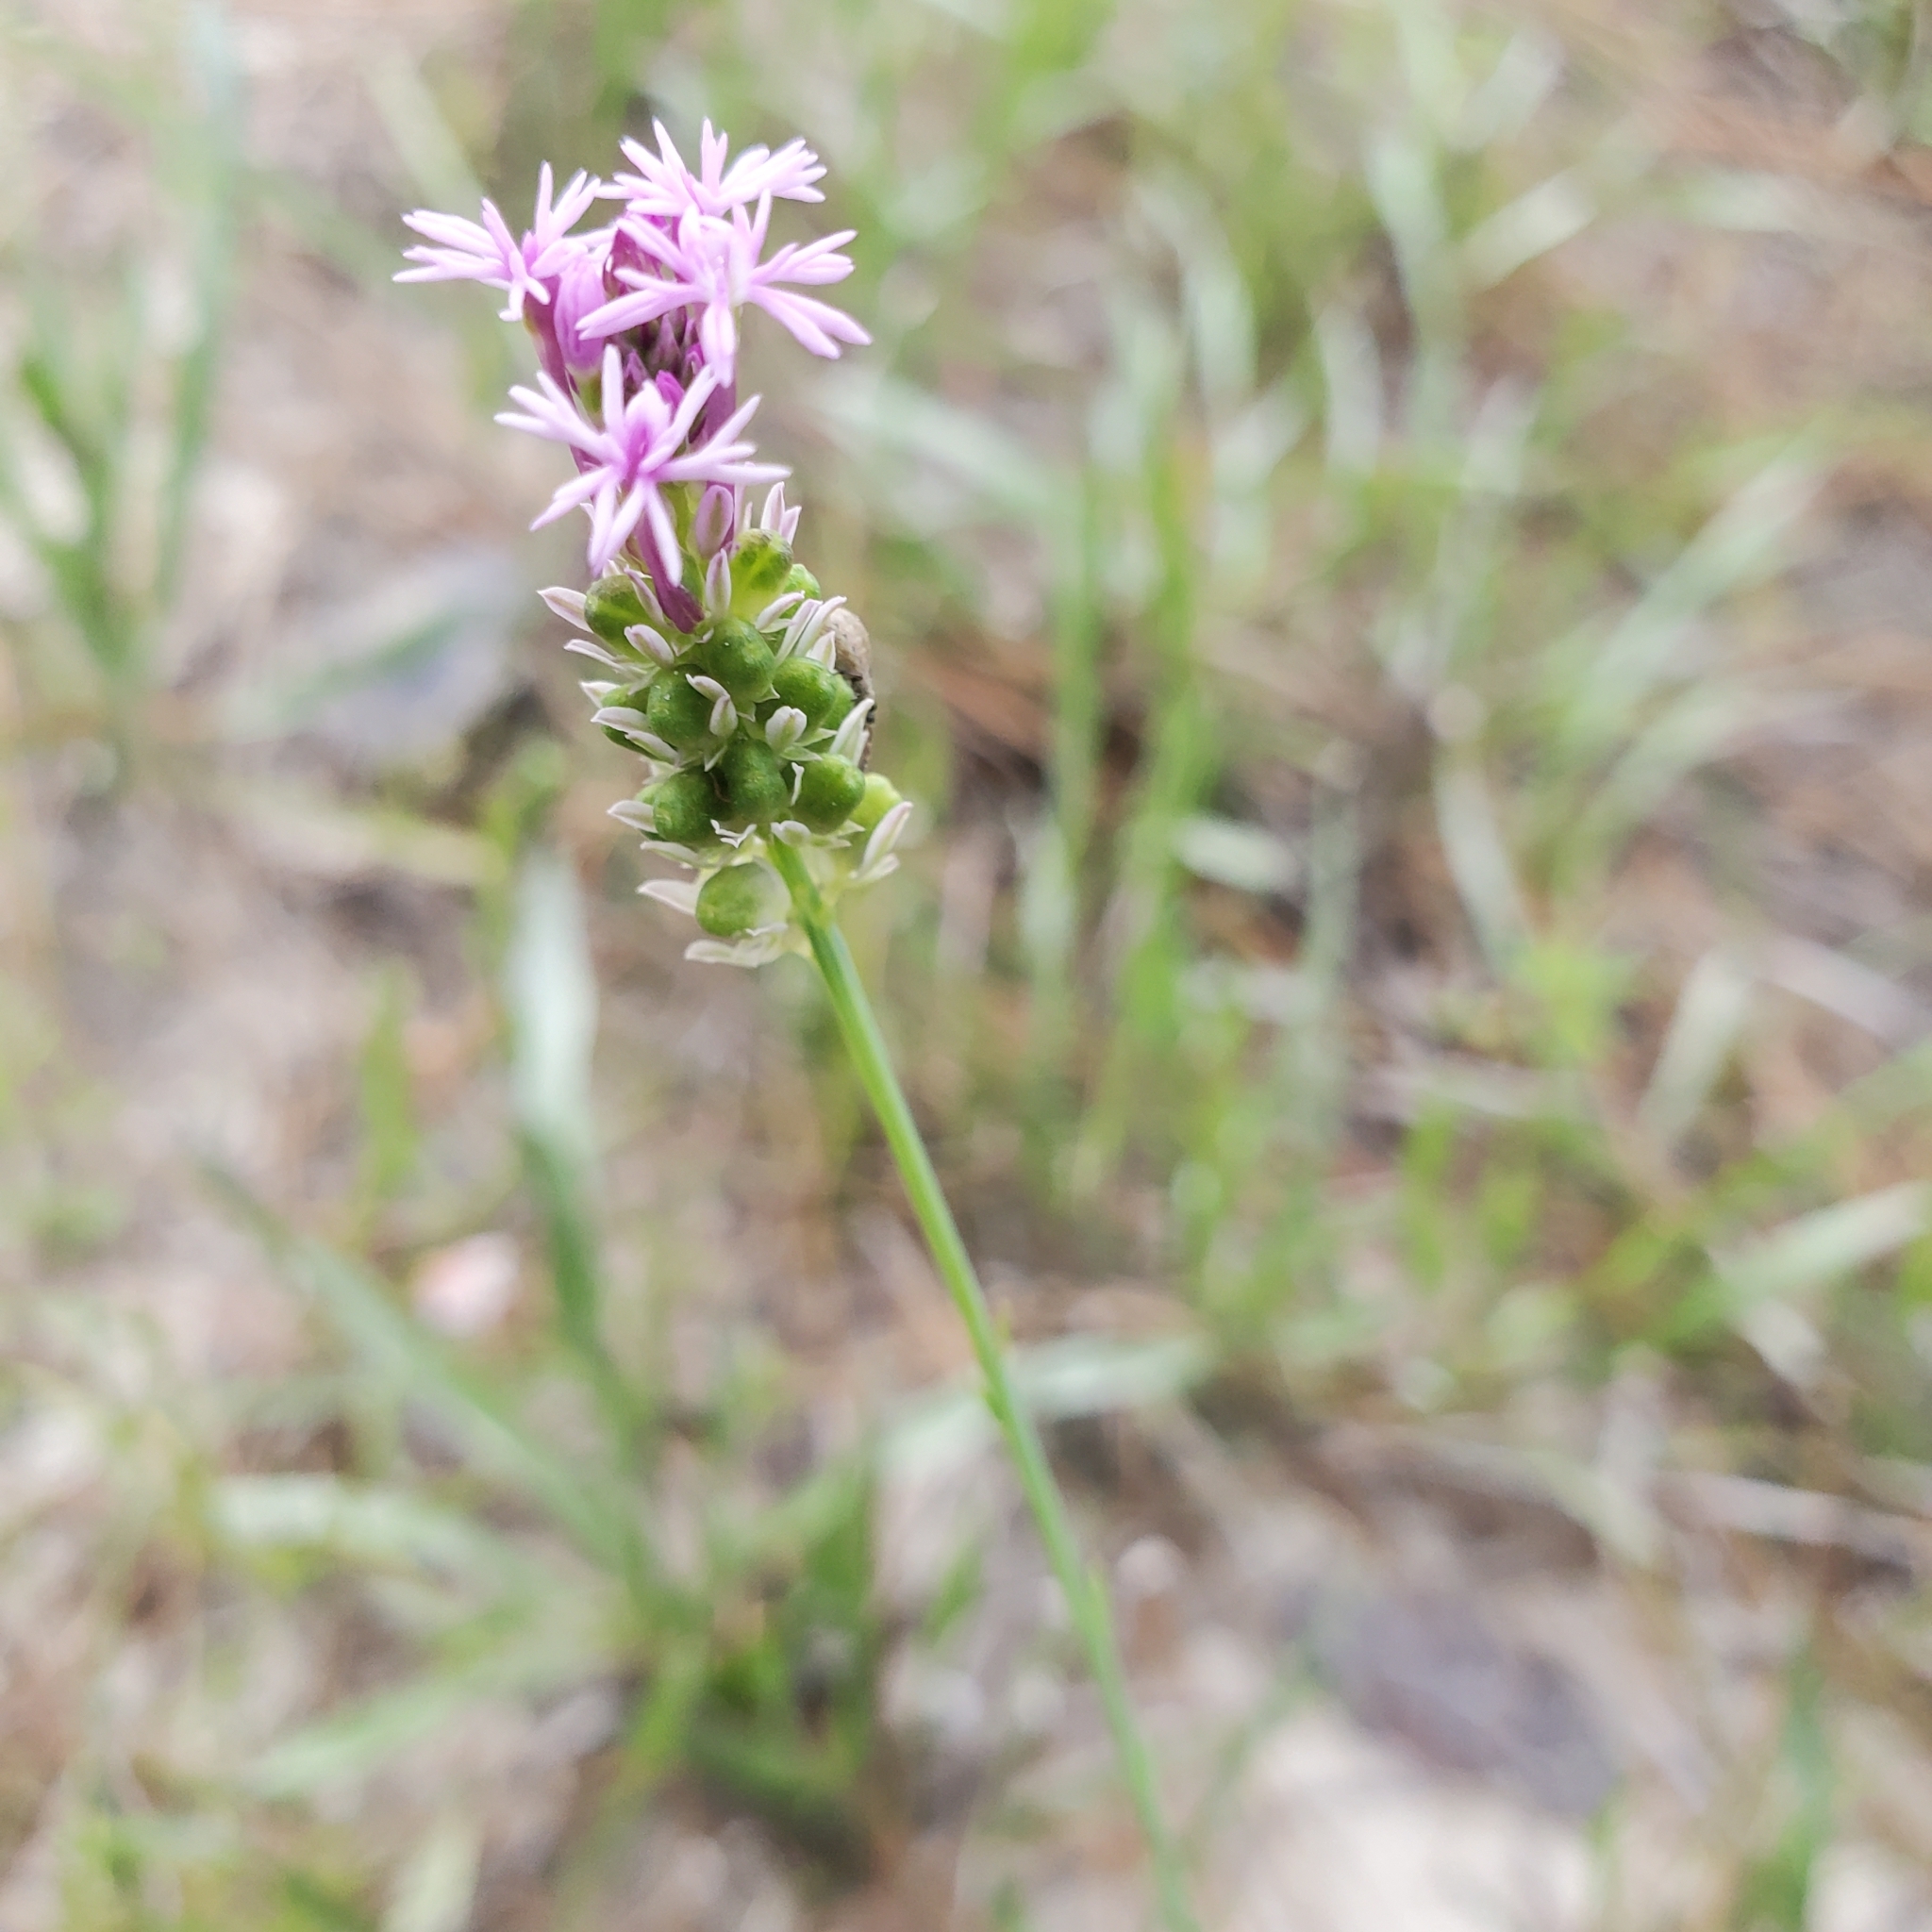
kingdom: Plantae
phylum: Tracheophyta
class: Magnoliopsida
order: Fabales
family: Polygalaceae
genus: Polygala
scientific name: Polygala incarnata
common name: Pink milkwort
